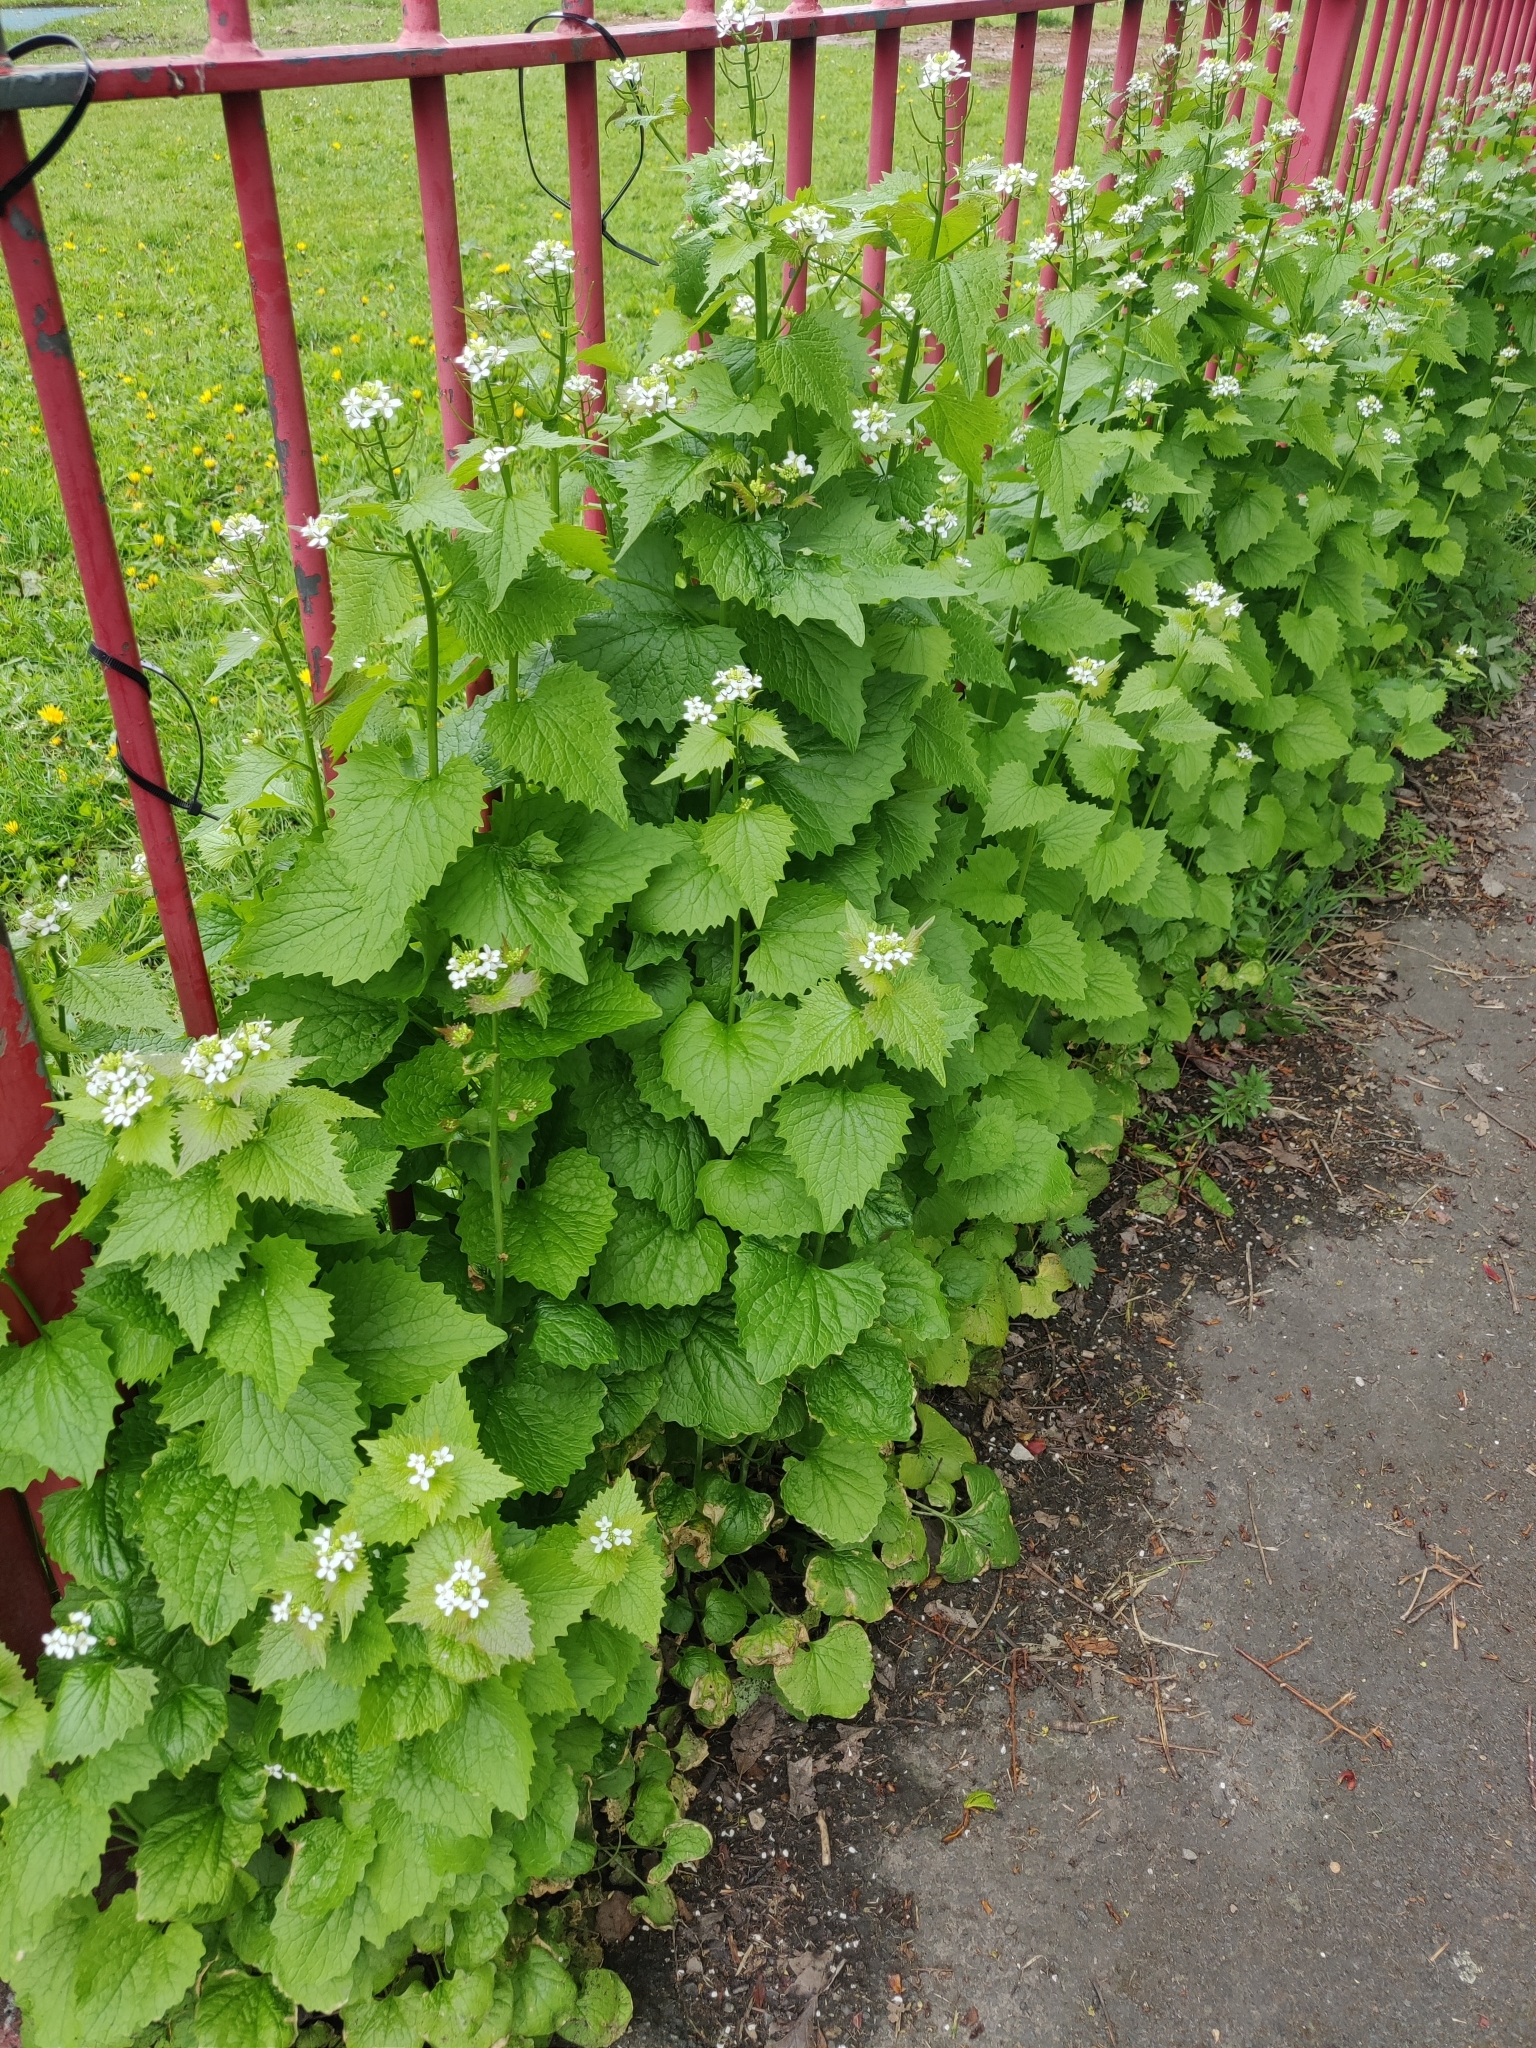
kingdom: Plantae
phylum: Tracheophyta
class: Magnoliopsida
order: Brassicales
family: Brassicaceae
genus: Alliaria
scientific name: Alliaria petiolata
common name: Garlic mustard
